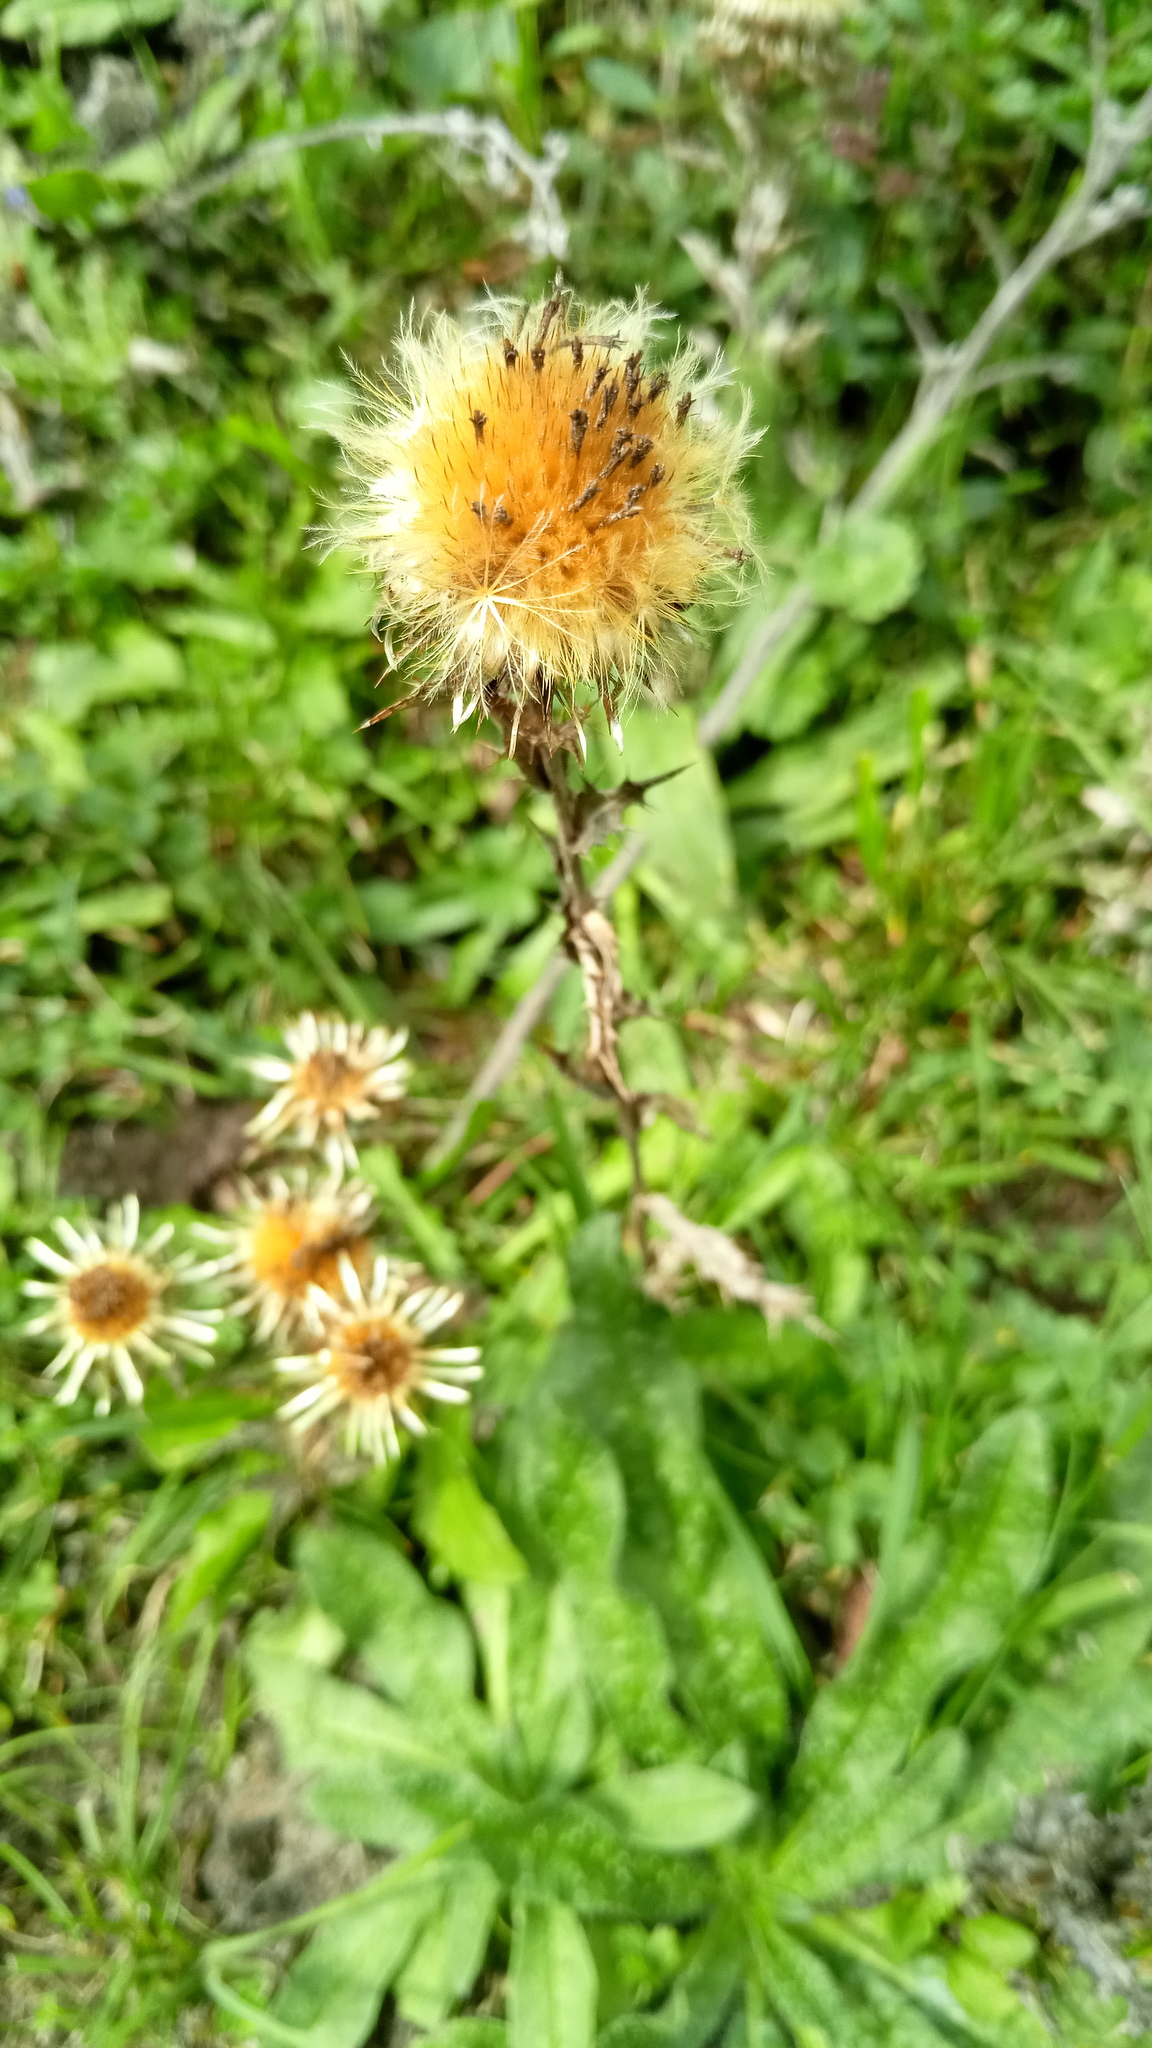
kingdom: Plantae
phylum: Tracheophyta
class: Magnoliopsida
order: Asterales
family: Asteraceae
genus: Carlina
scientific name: Carlina vulgaris
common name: Carline thistle
